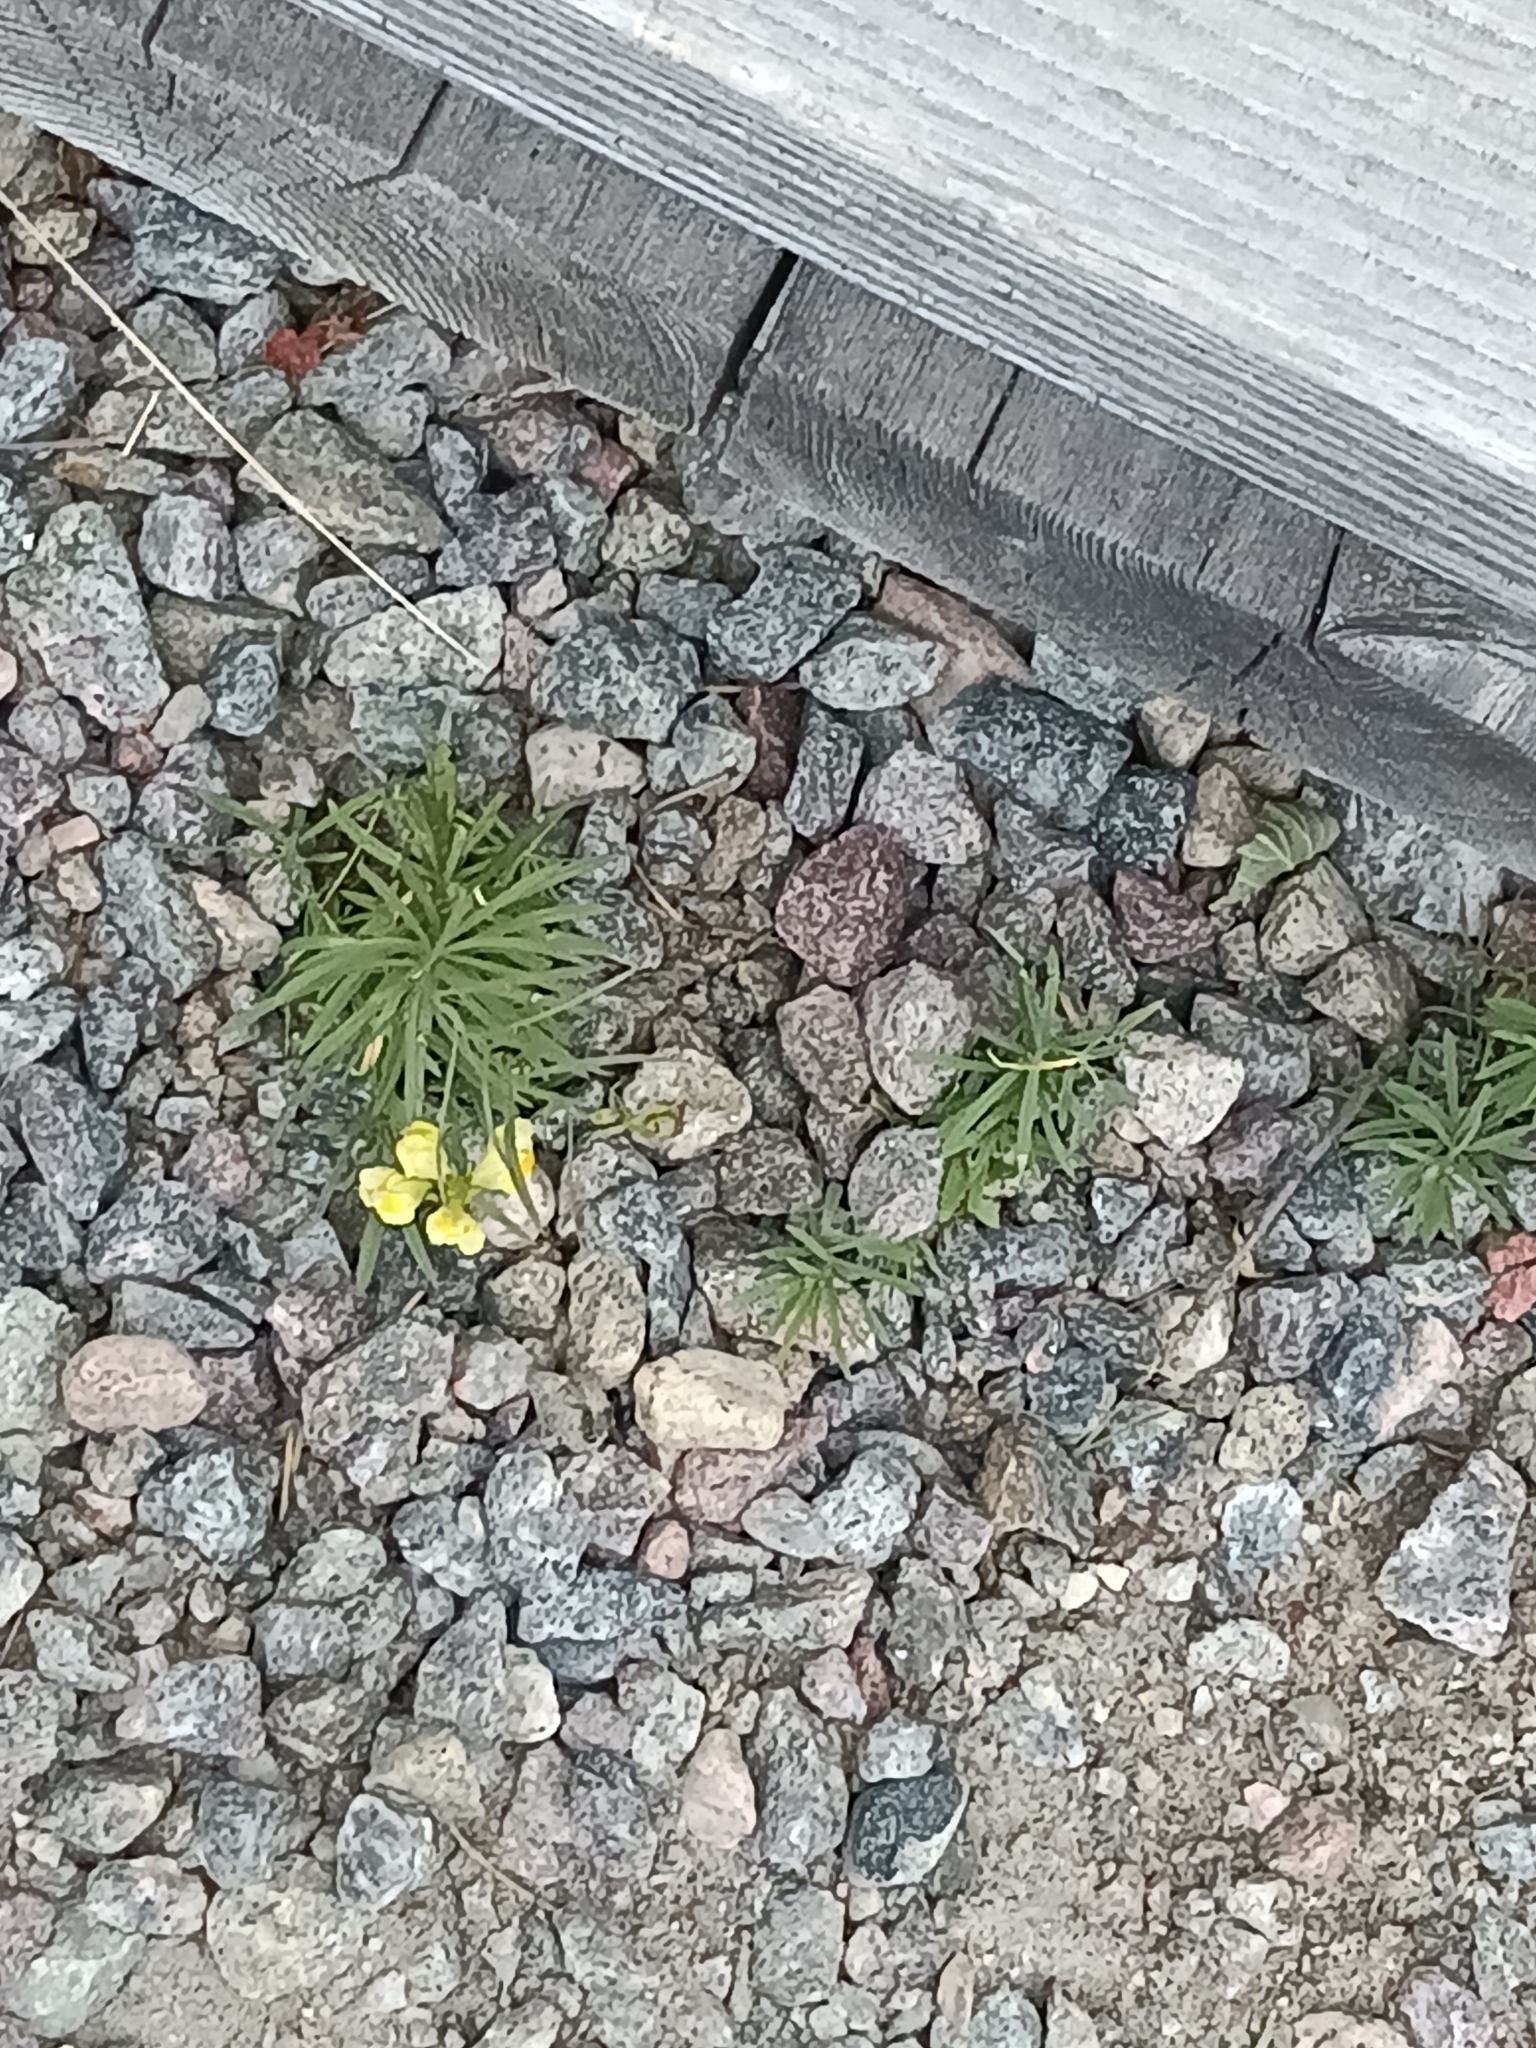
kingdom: Plantae
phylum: Tracheophyta
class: Magnoliopsida
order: Lamiales
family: Plantaginaceae
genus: Linaria
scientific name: Linaria vulgaris
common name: Butter and eggs
